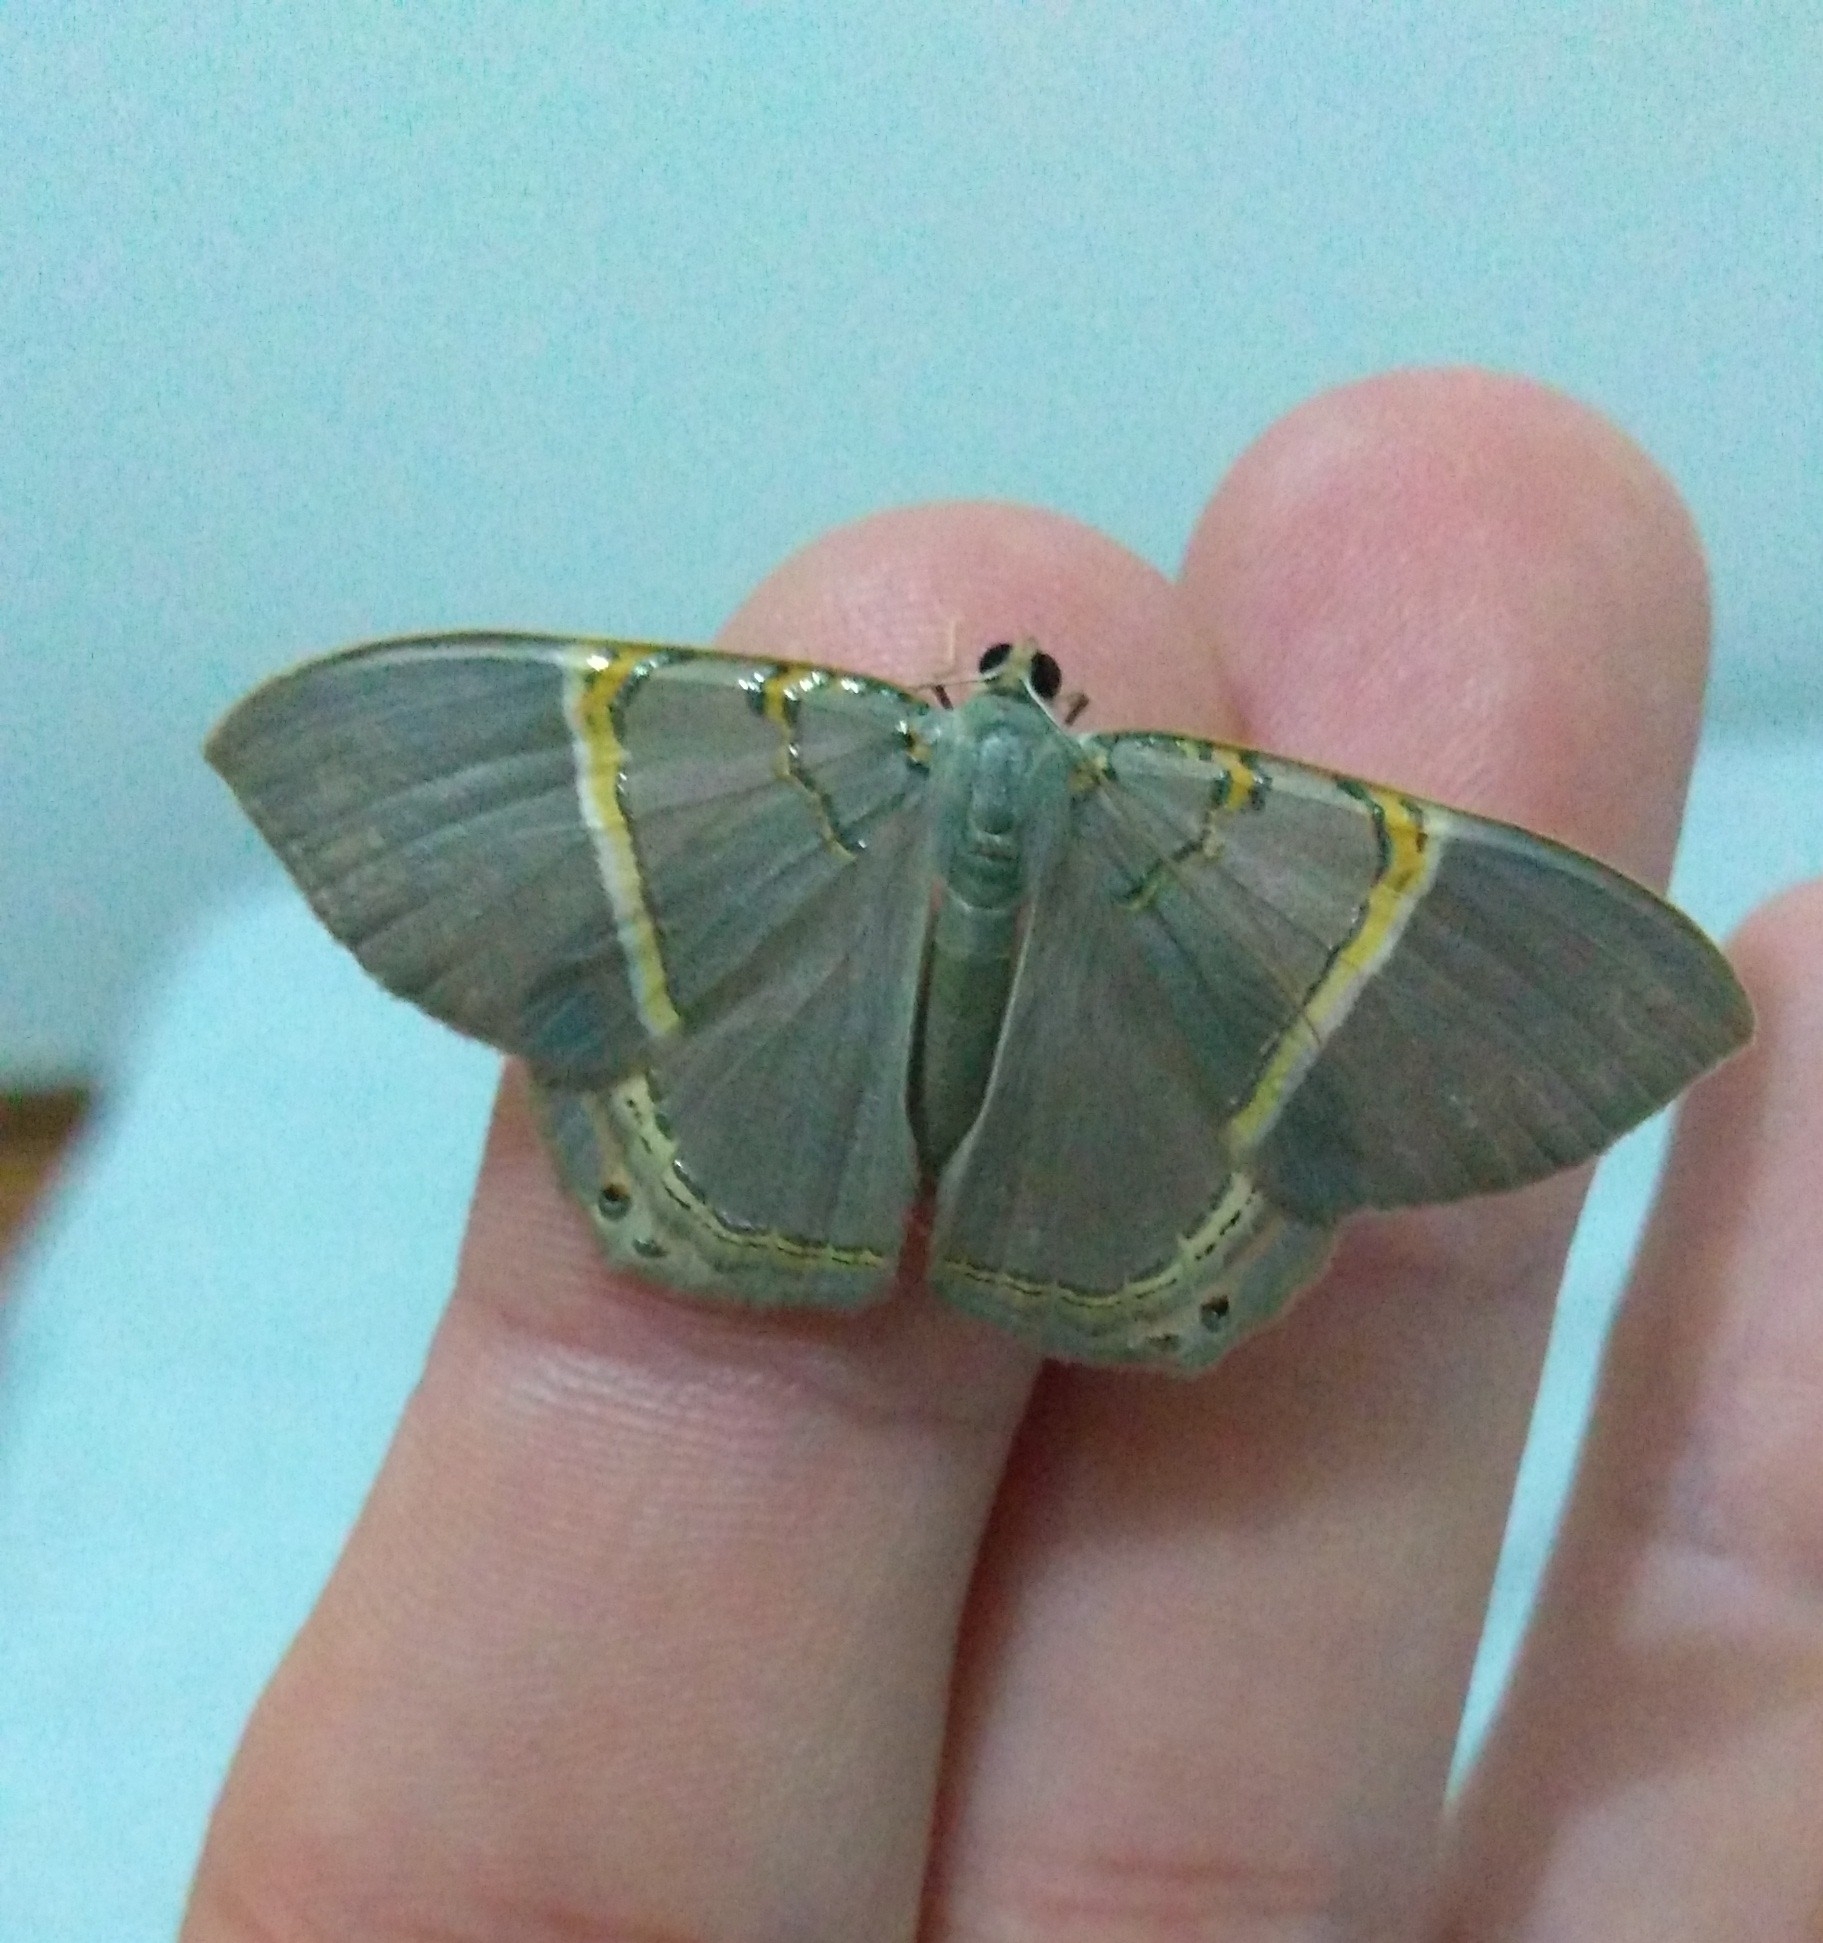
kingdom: Animalia
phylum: Arthropoda
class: Insecta
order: Lepidoptera
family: Geometridae
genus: Phrygionis
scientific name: Phrygionis paradoxata
